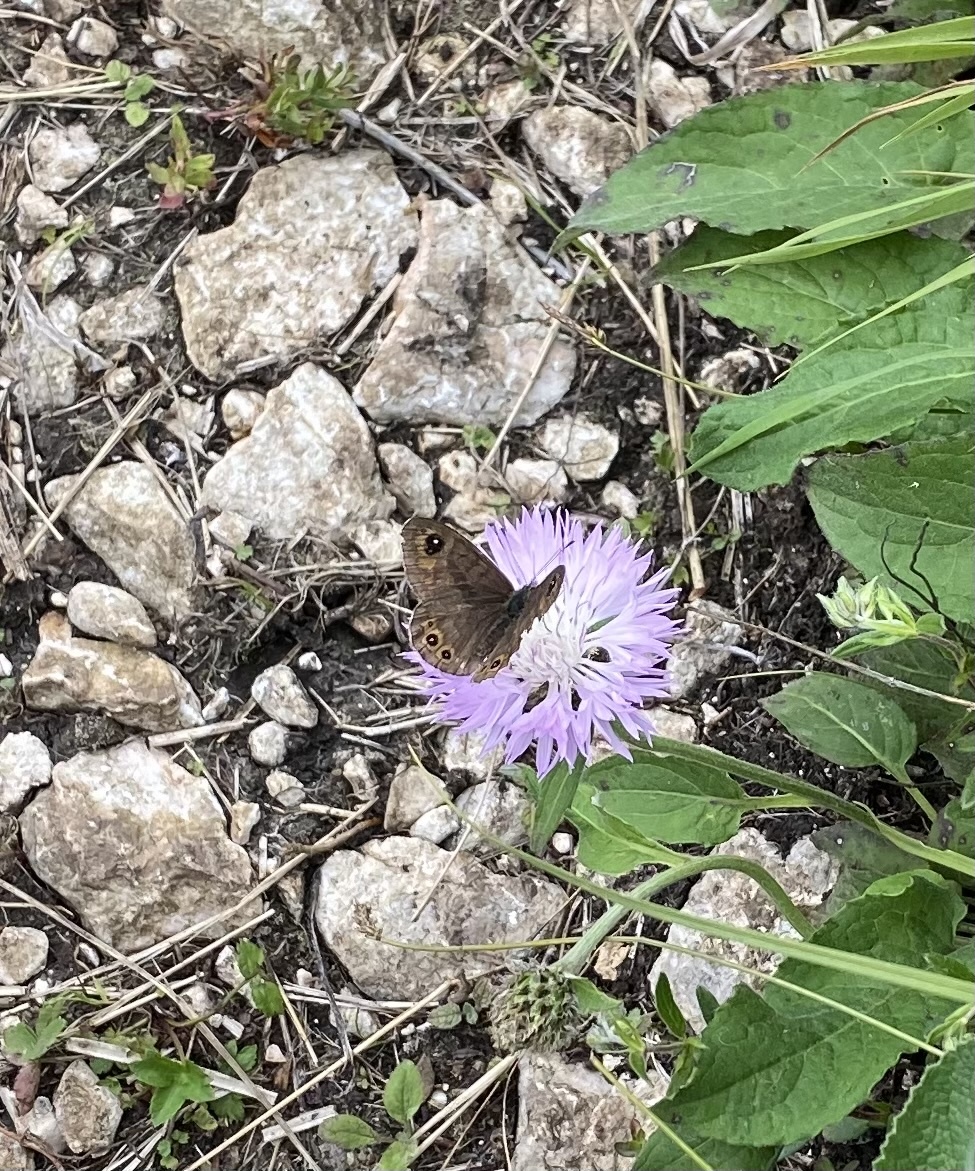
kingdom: Animalia
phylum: Arthropoda
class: Insecta
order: Lepidoptera
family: Nymphalidae
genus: Pararge
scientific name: Pararge petropolitana
